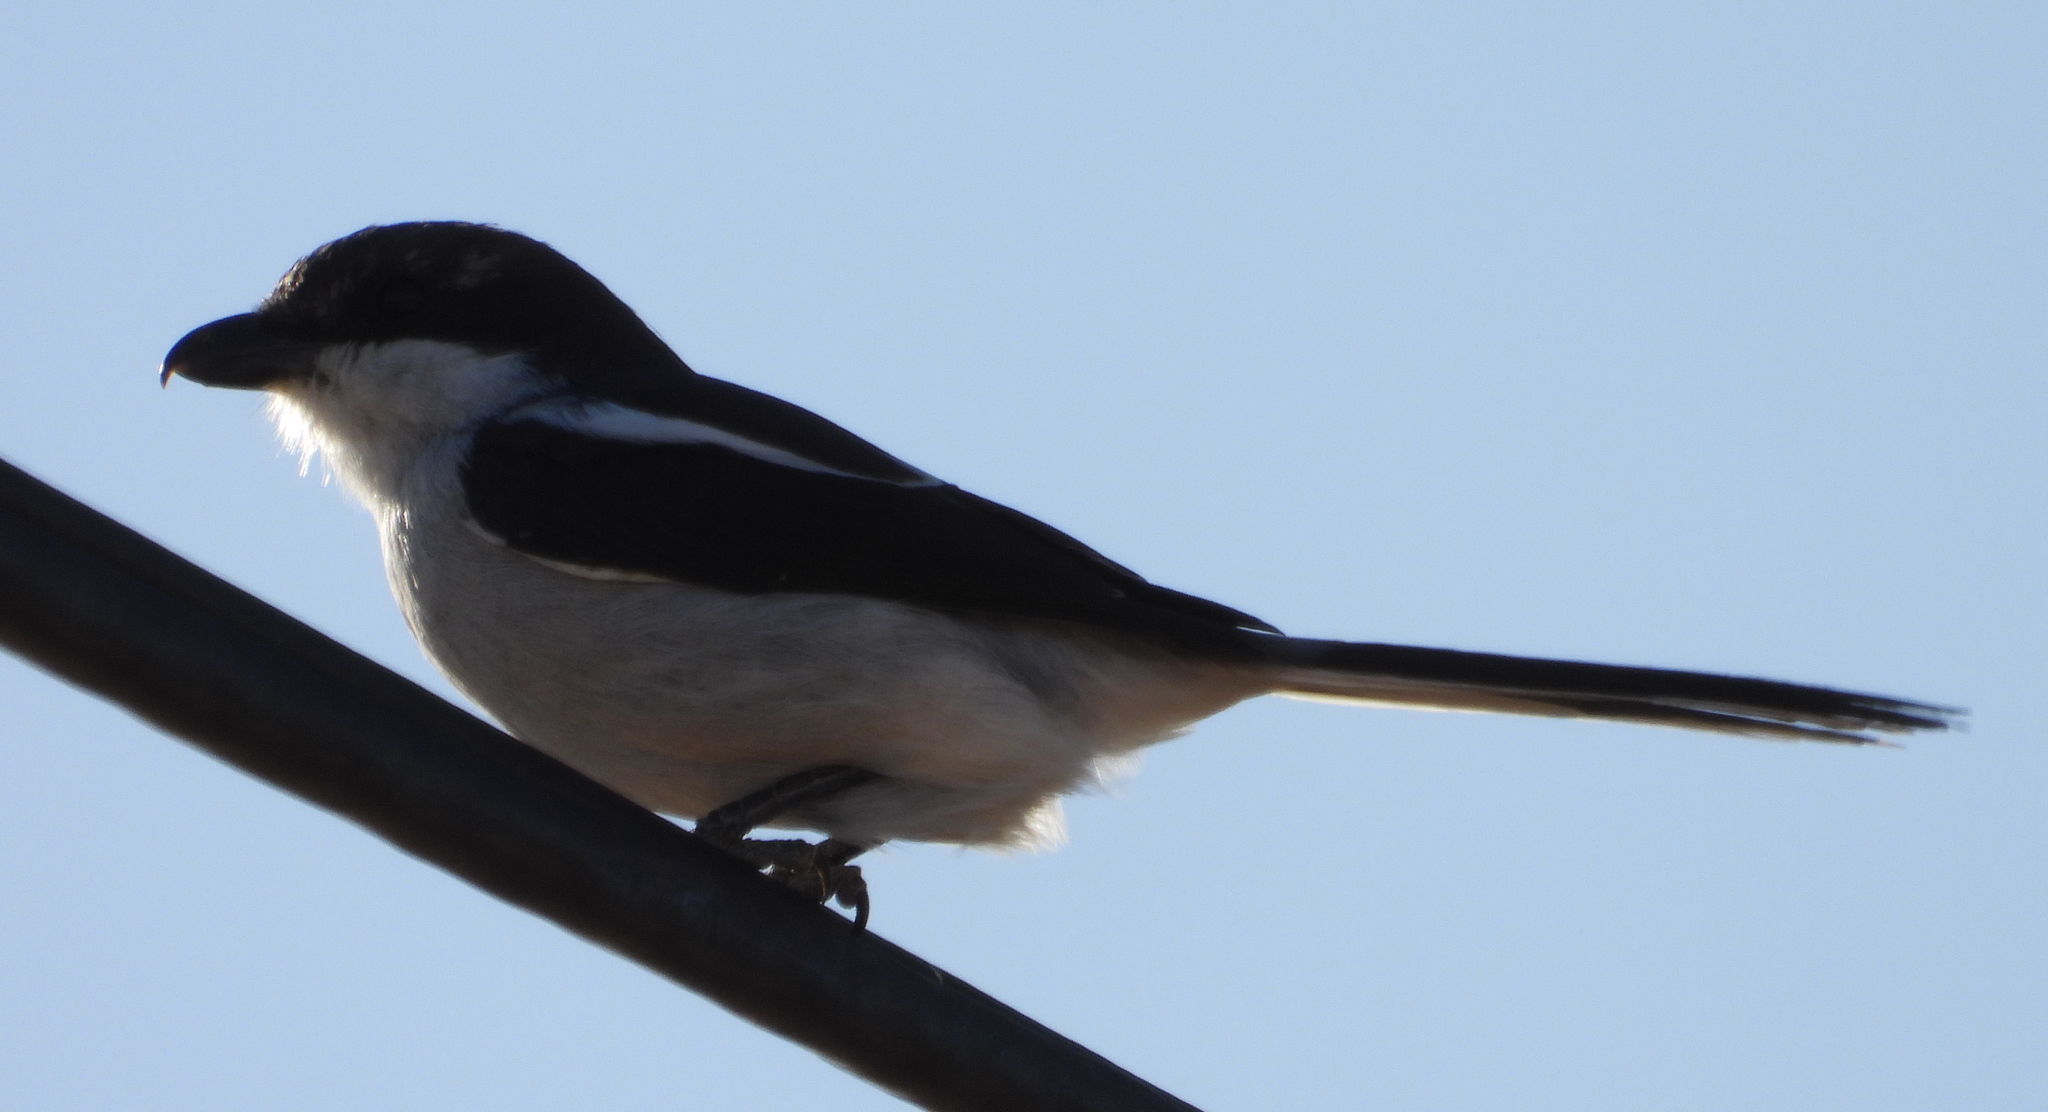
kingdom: Animalia
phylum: Chordata
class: Aves
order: Passeriformes
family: Laniidae
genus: Lanius
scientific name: Lanius collaris
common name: Southern fiscal
